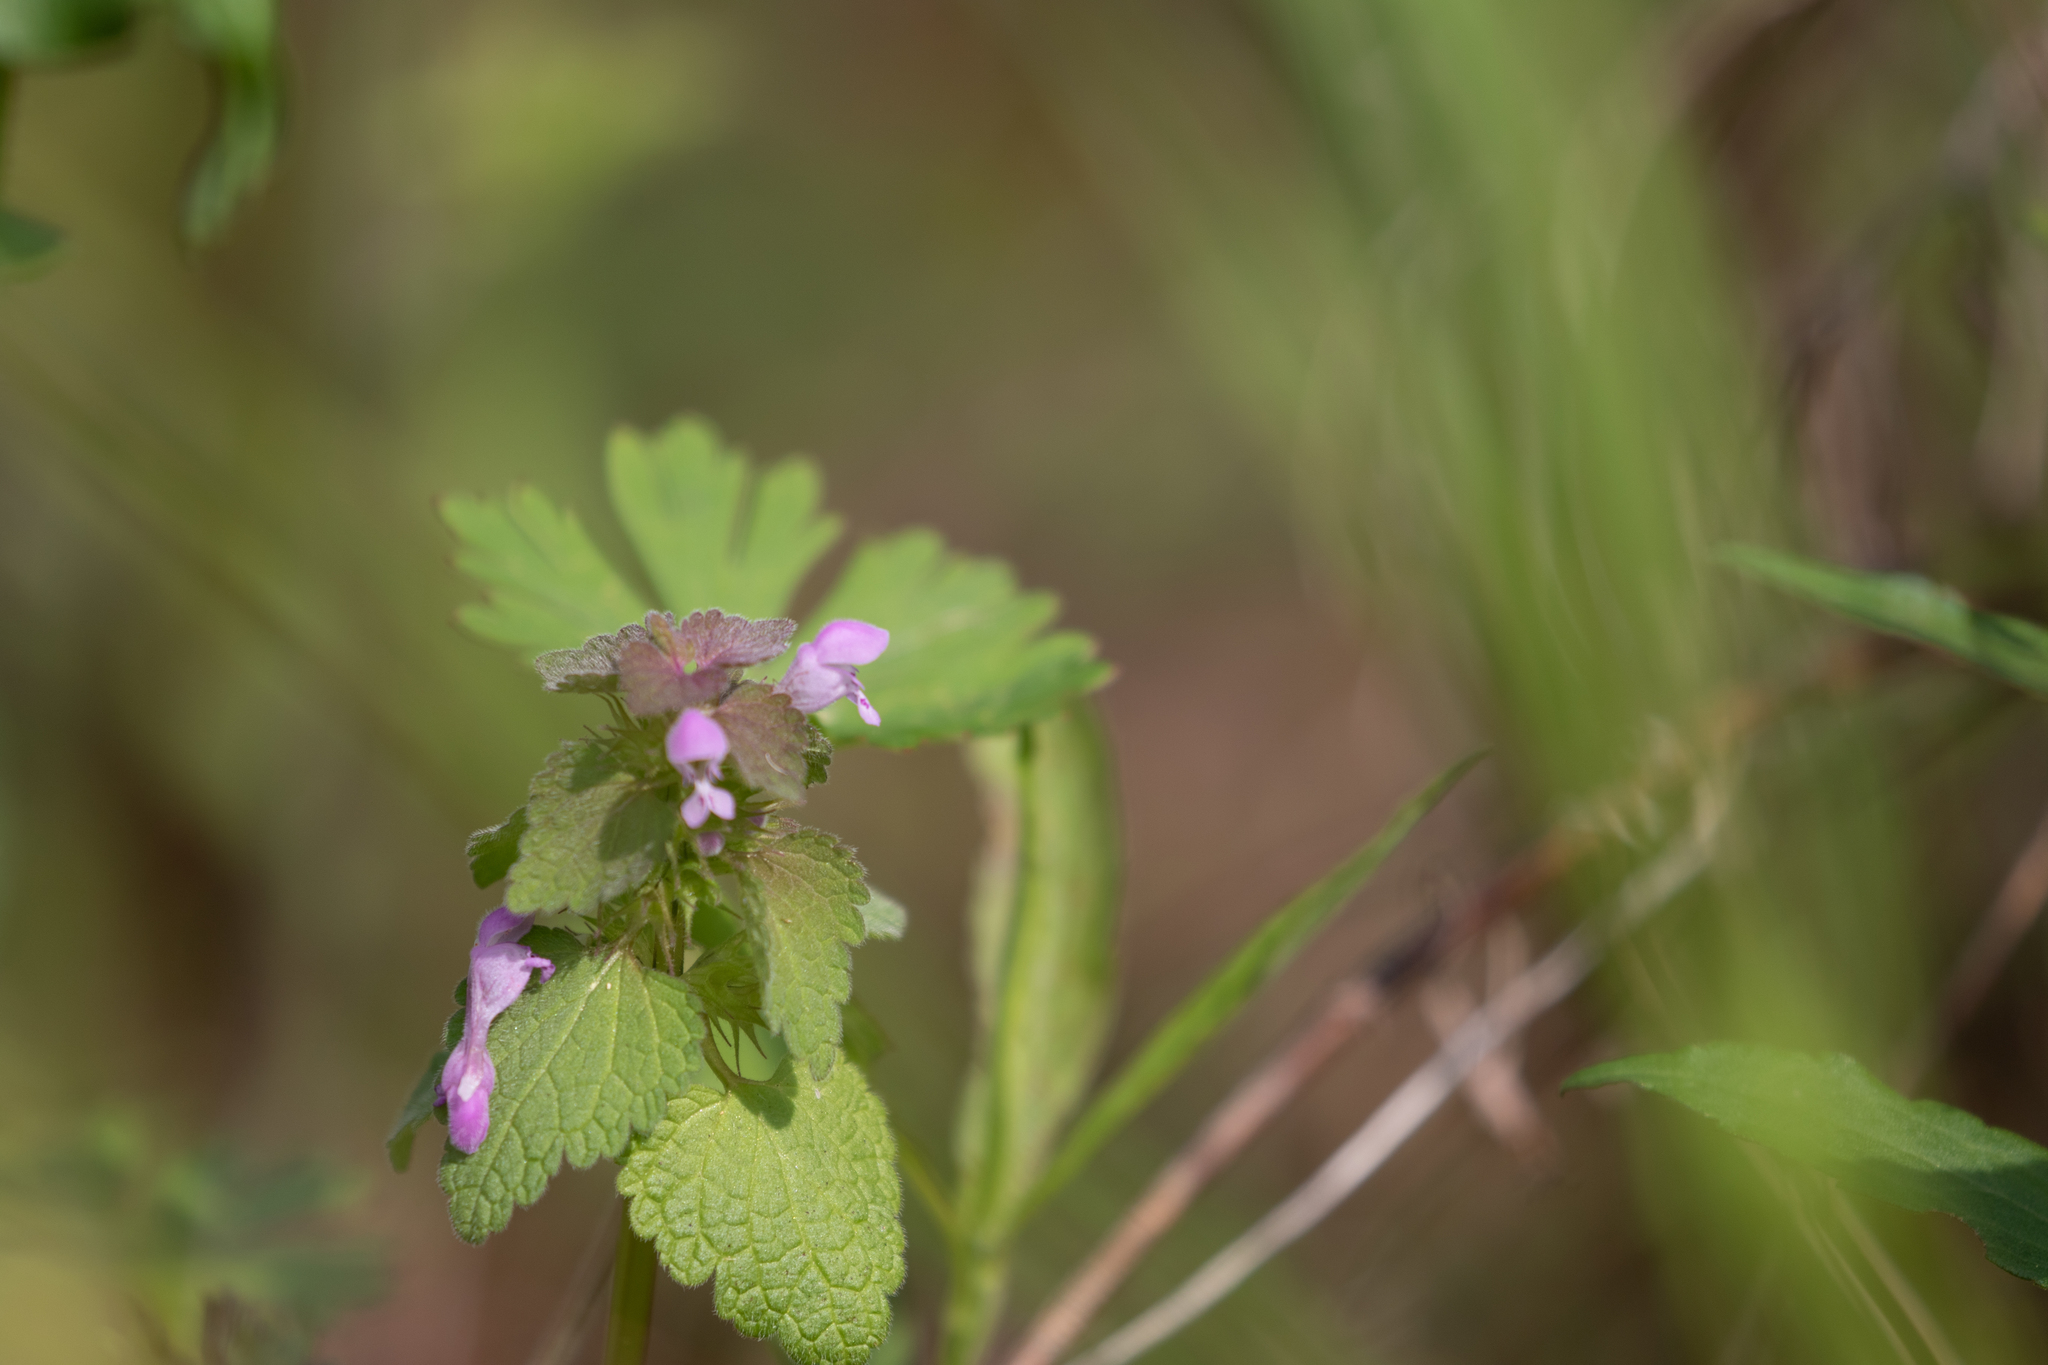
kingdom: Plantae
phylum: Tracheophyta
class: Magnoliopsida
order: Lamiales
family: Lamiaceae
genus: Lamium
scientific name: Lamium purpureum
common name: Red dead-nettle
